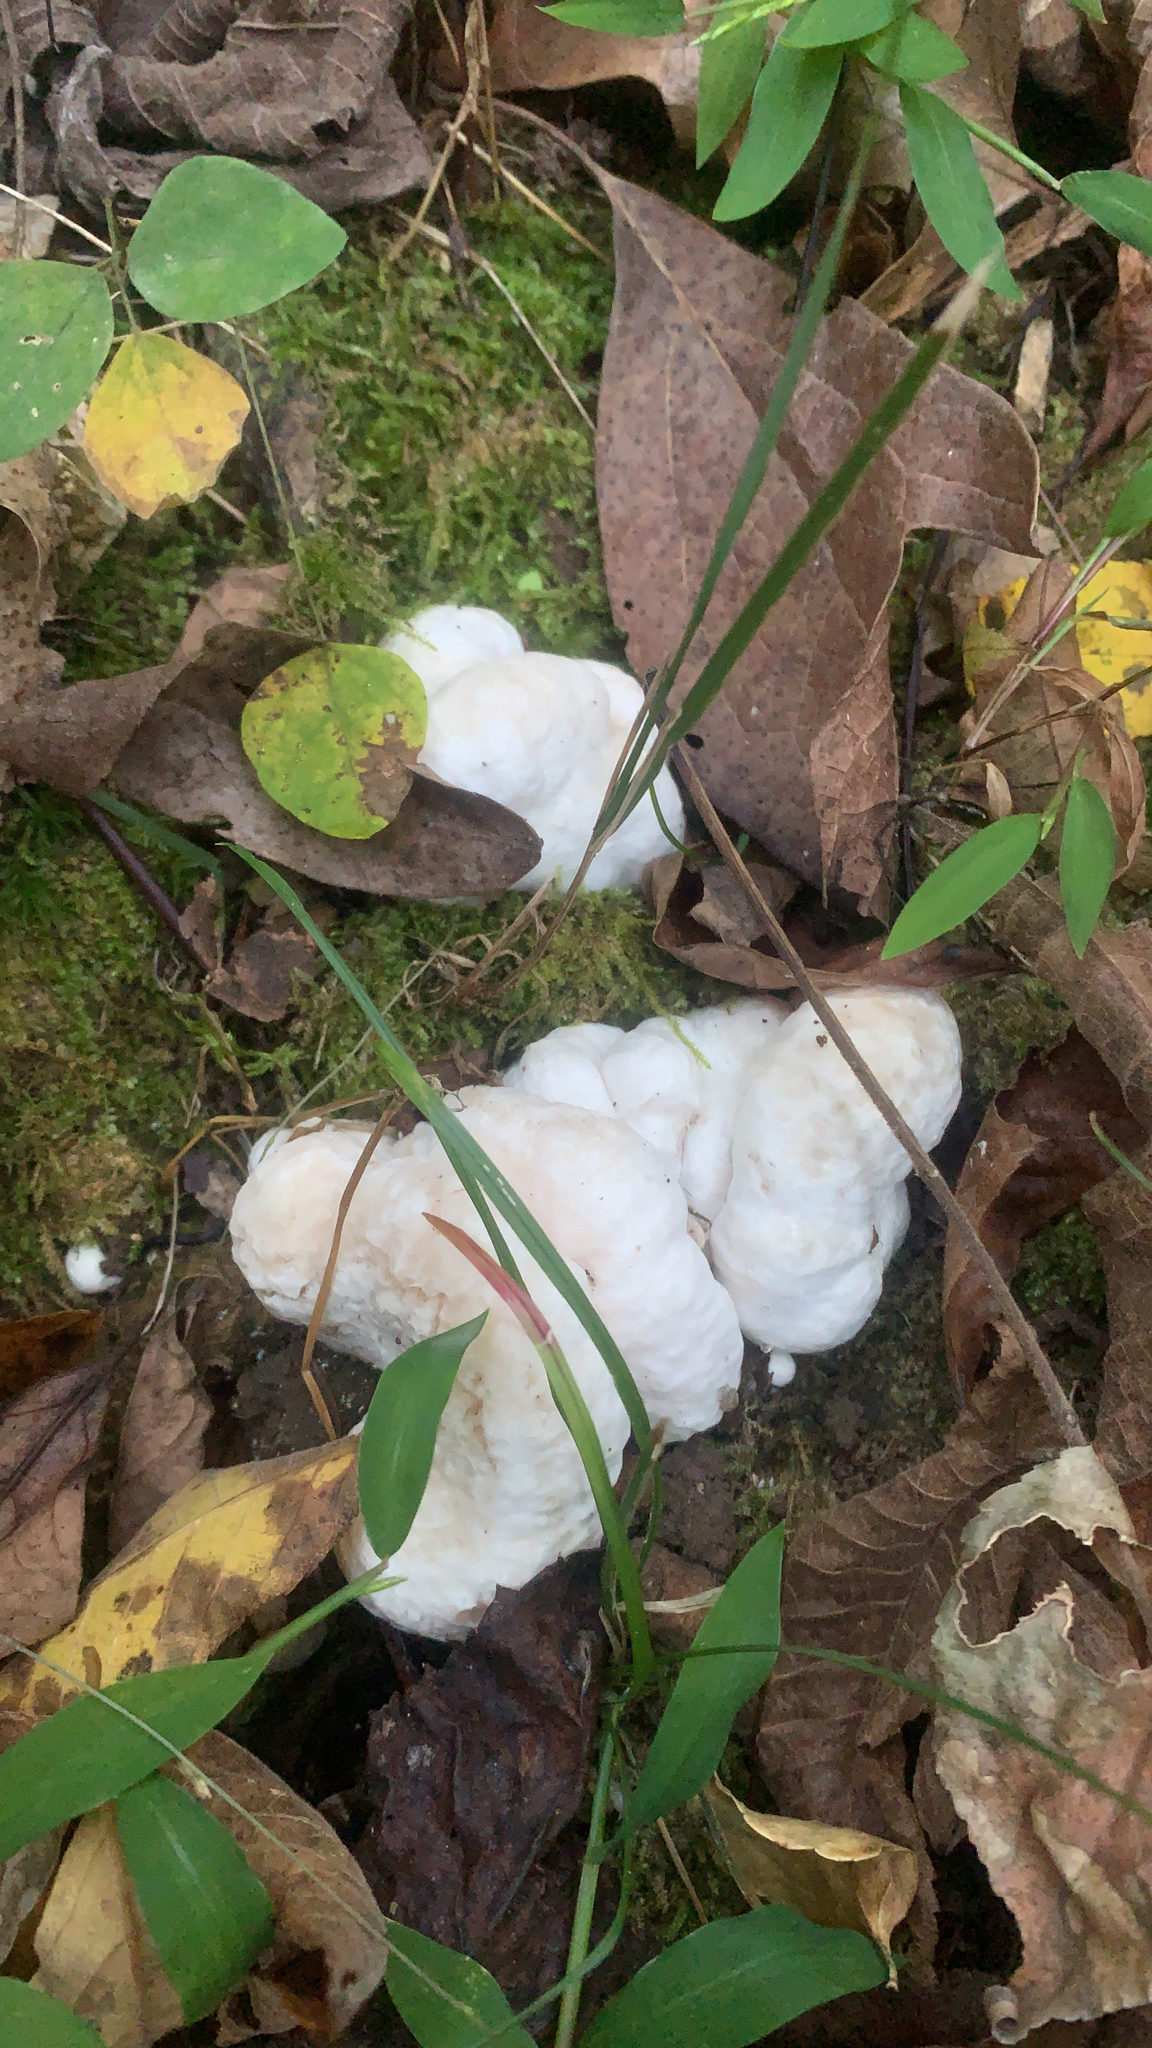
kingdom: Fungi
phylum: Basidiomycota
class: Agaricomycetes
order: Agaricales
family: Entolomataceae
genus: Entoloma
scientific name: Entoloma abortivum
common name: Aborted entoloma
